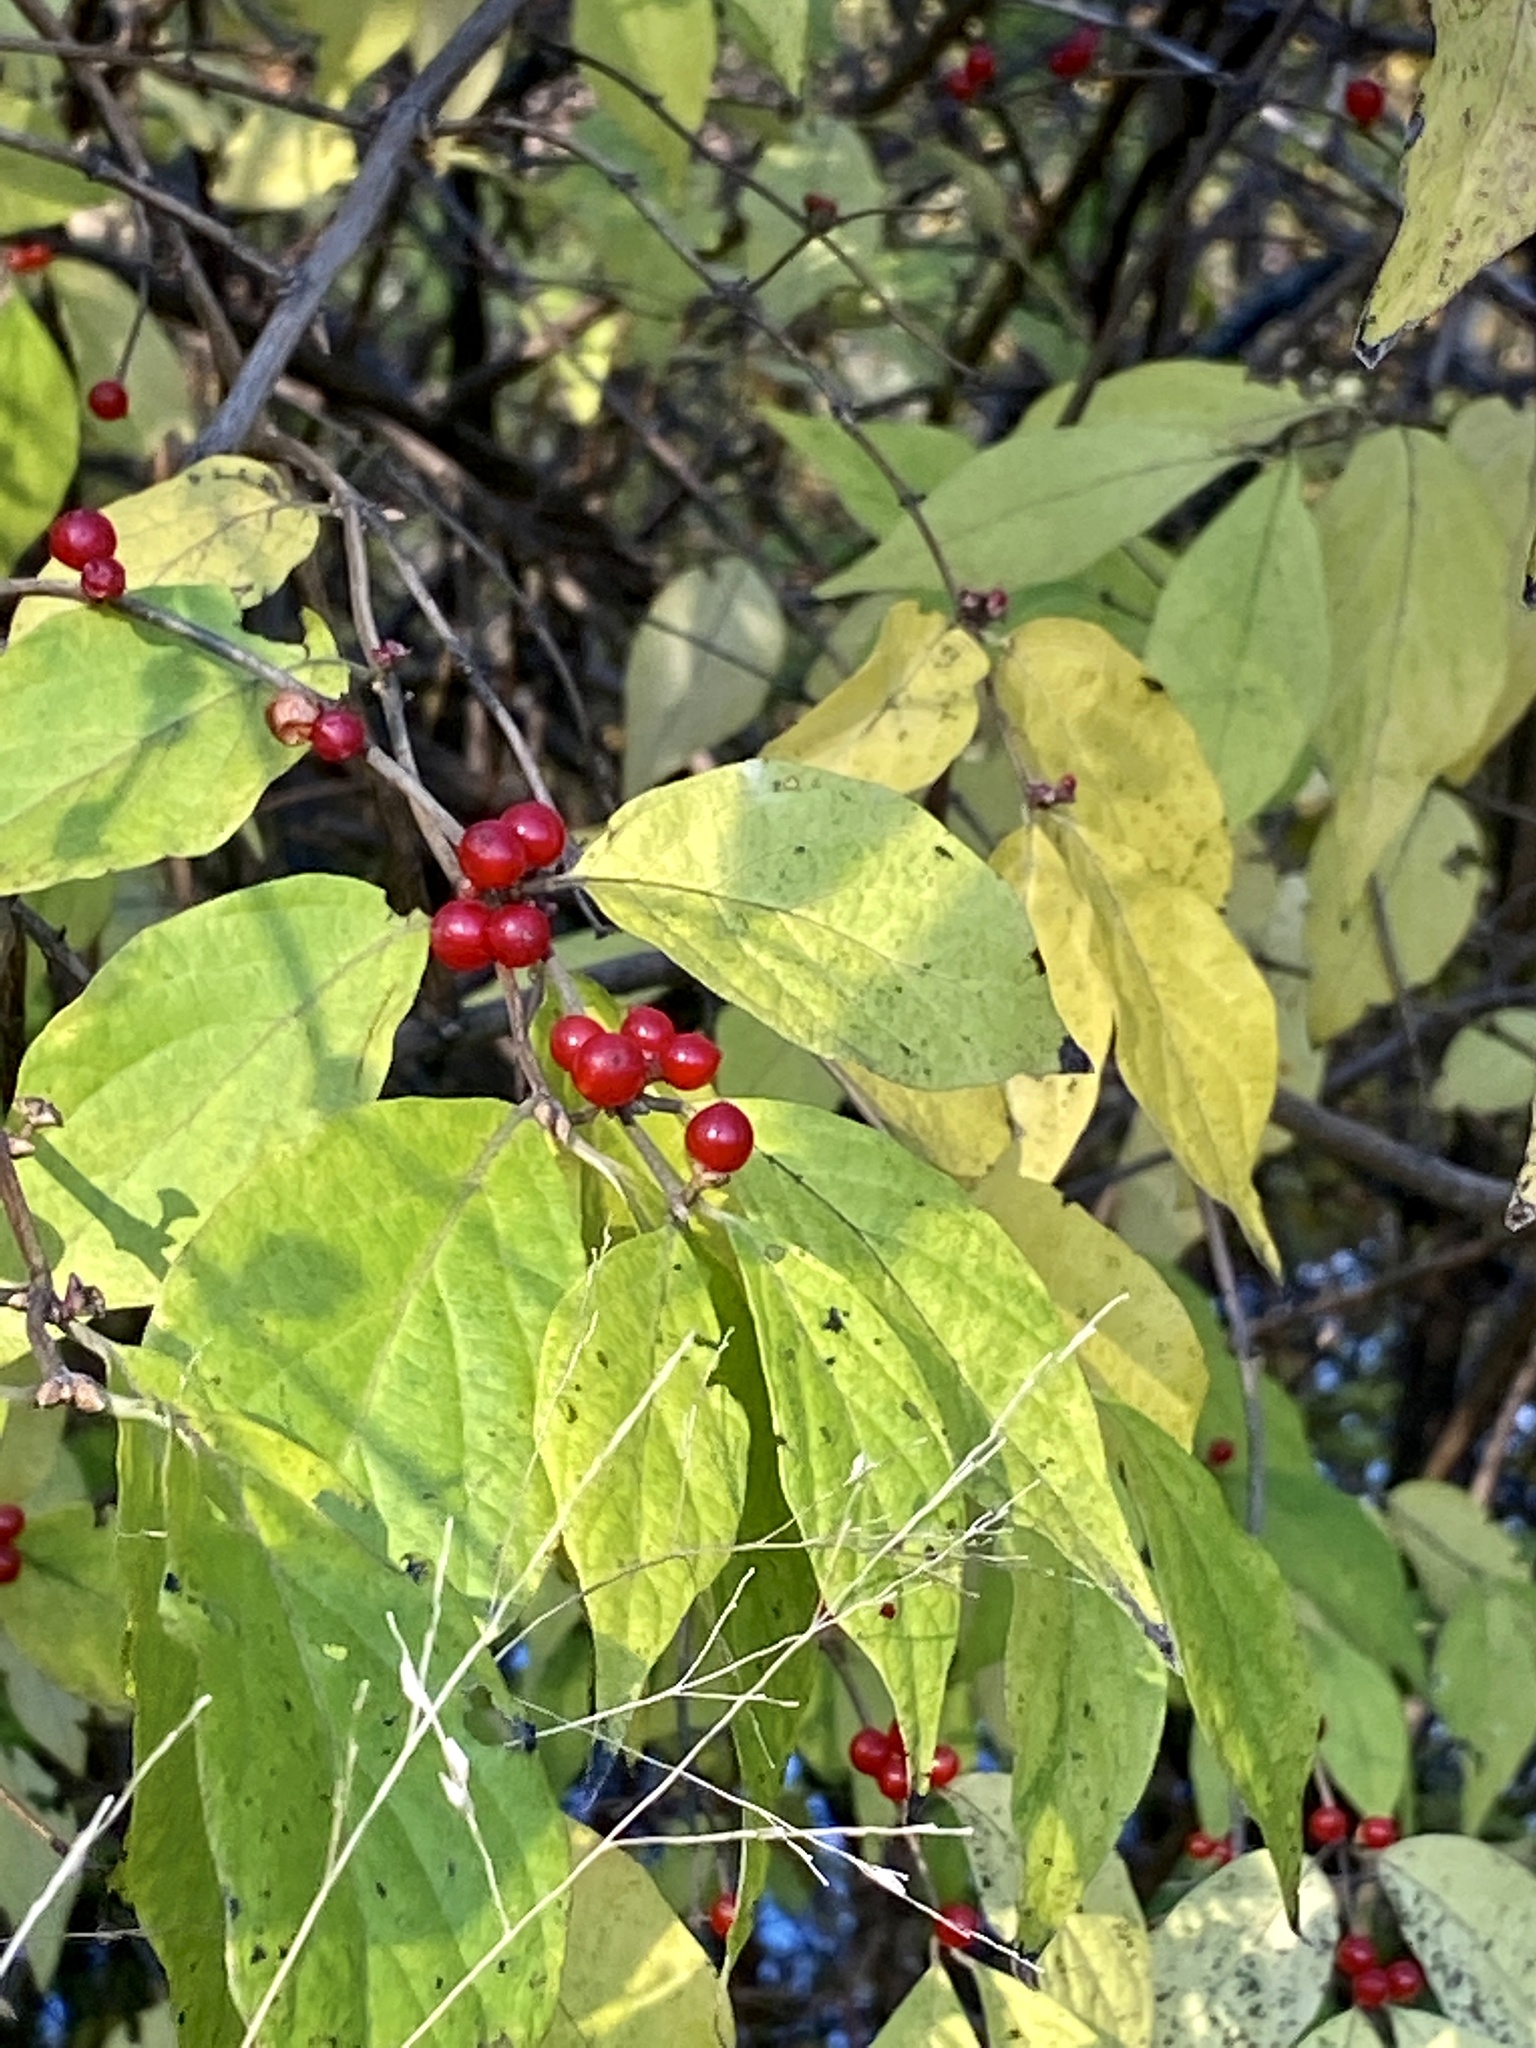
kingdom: Plantae
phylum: Tracheophyta
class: Magnoliopsida
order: Dipsacales
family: Caprifoliaceae
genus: Lonicera
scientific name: Lonicera maackii
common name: Amur honeysuckle
